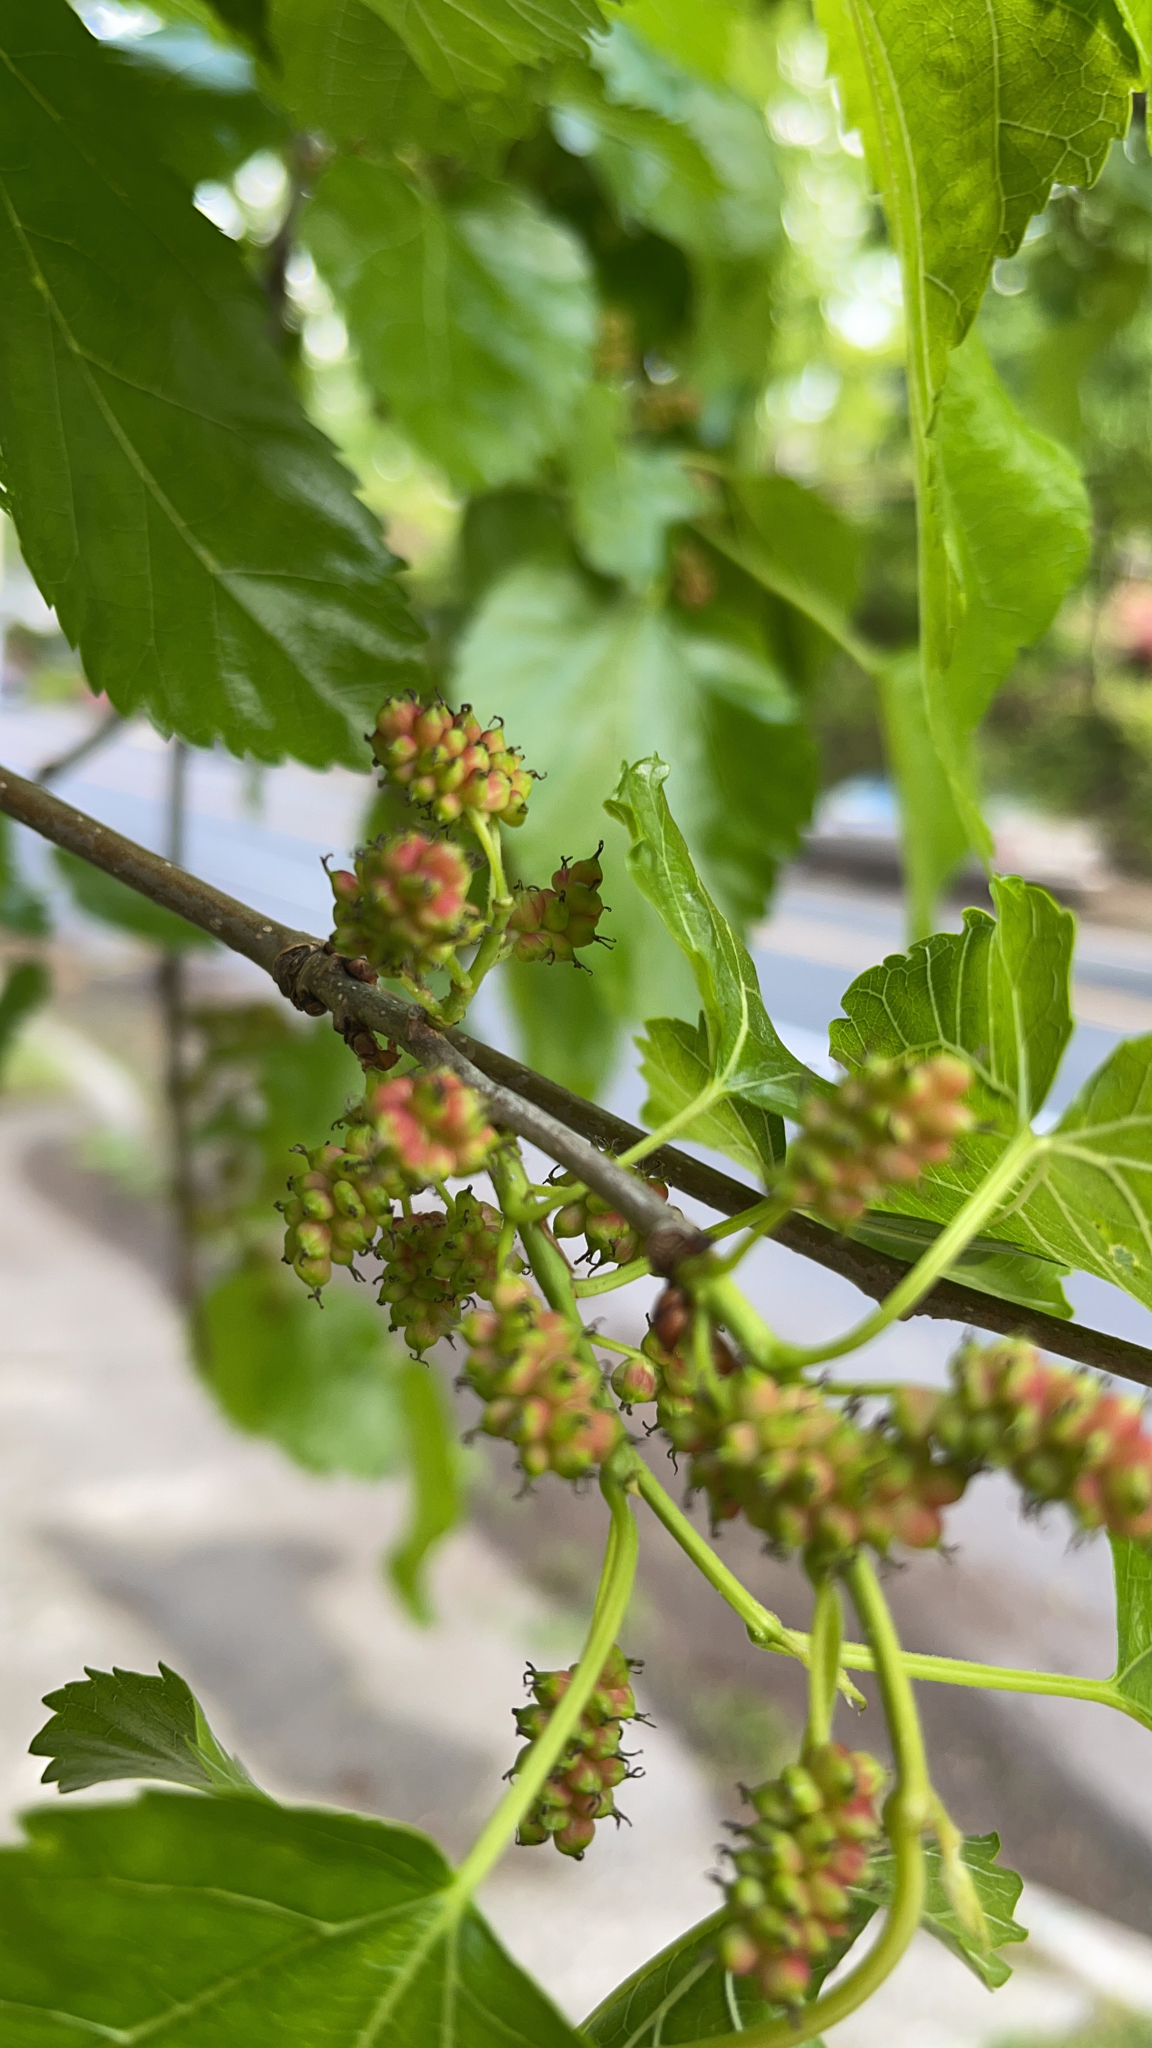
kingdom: Plantae
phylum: Tracheophyta
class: Magnoliopsida
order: Rosales
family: Moraceae
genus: Morus
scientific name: Morus alba
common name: White mulberry
